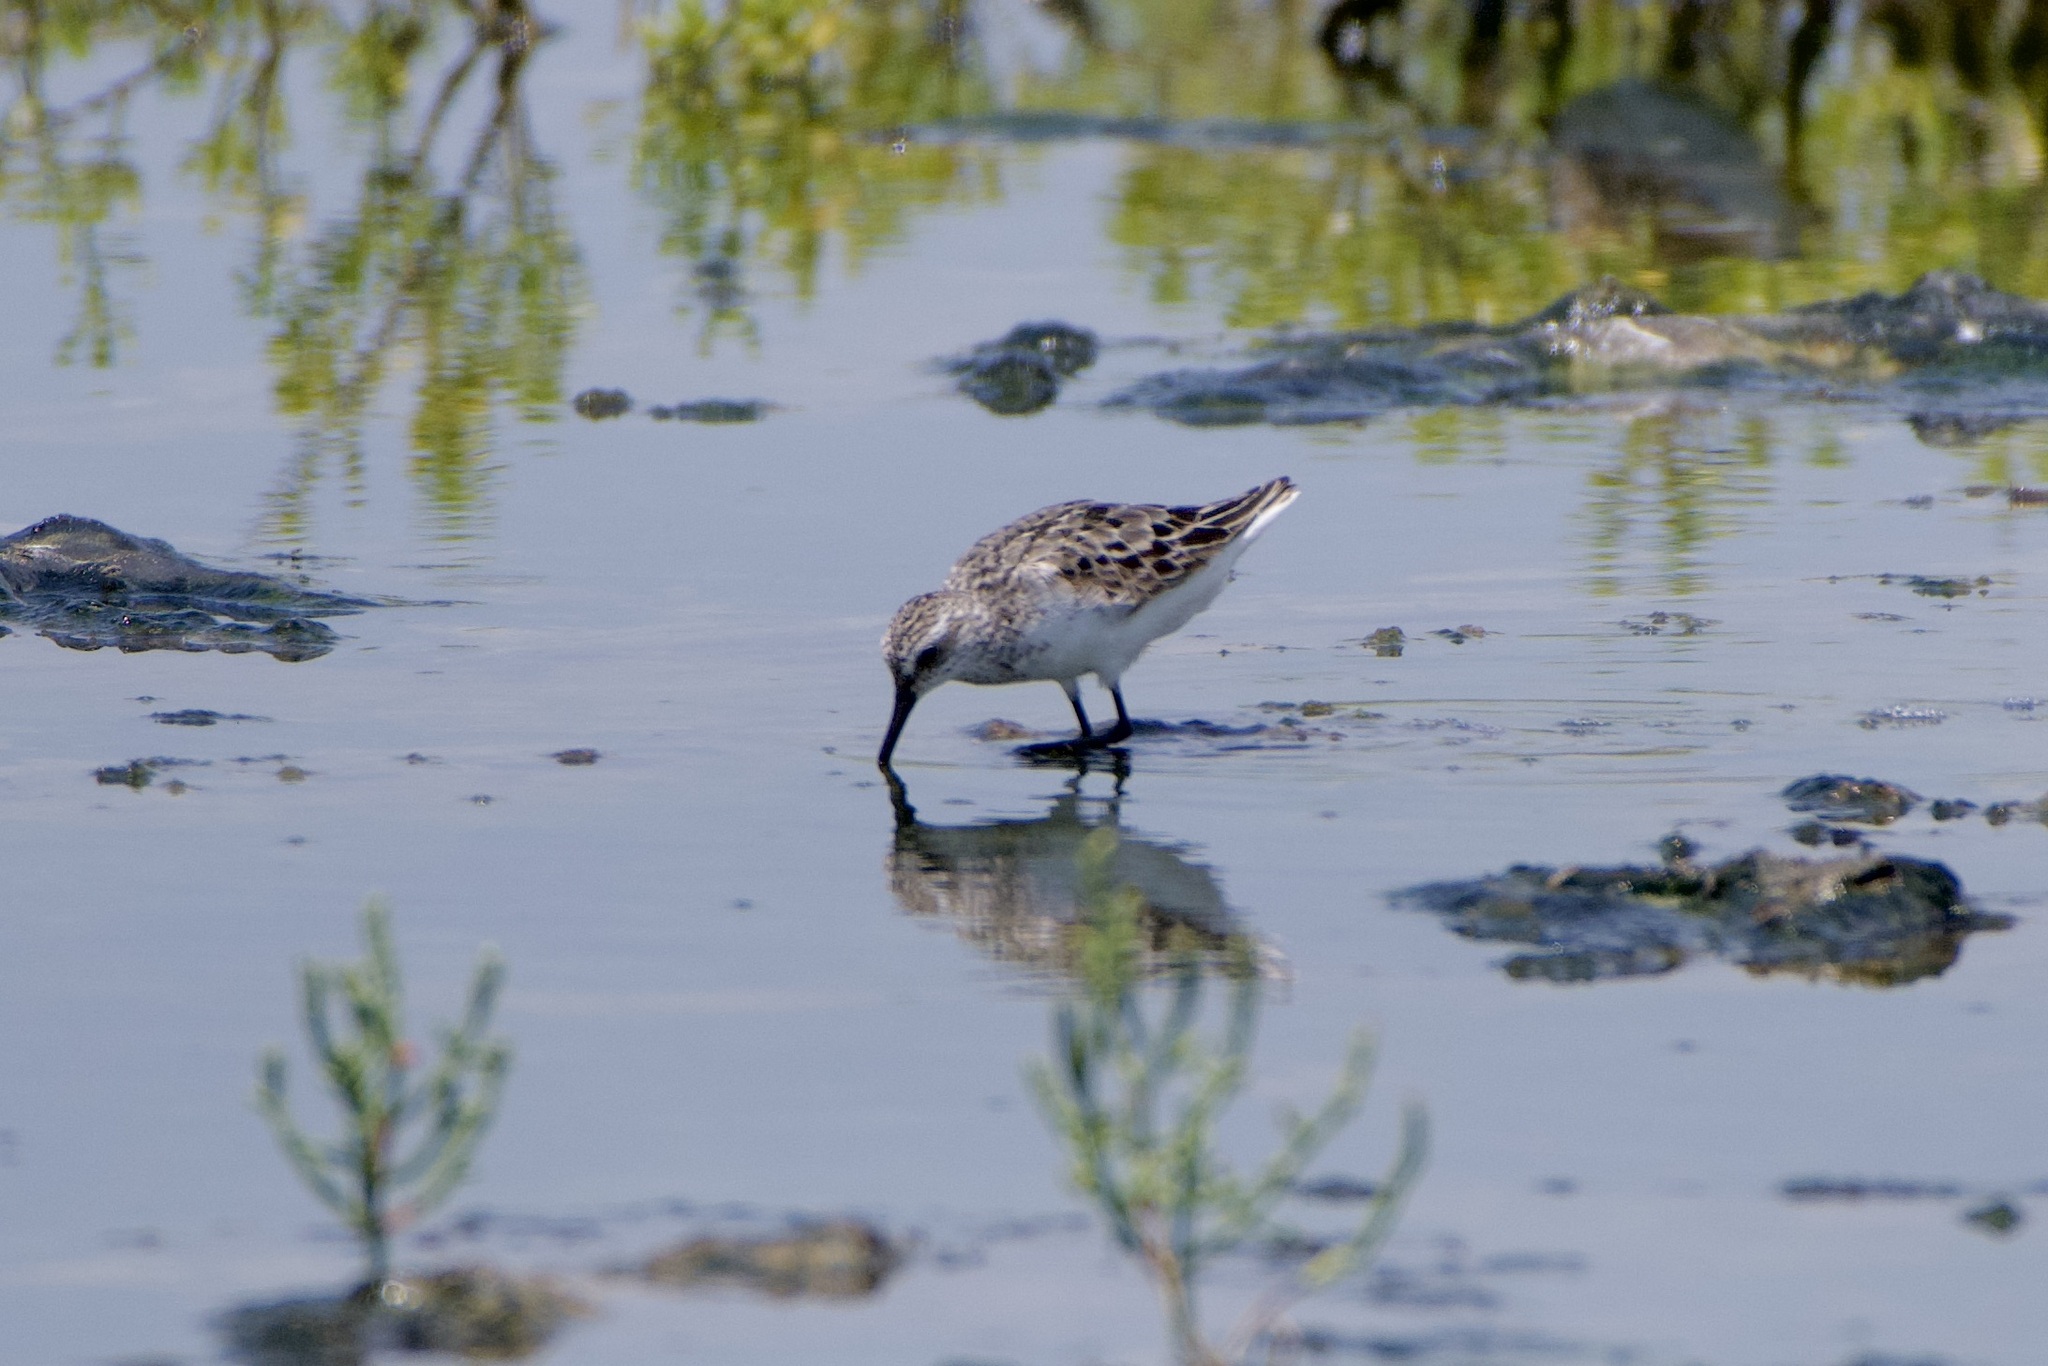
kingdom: Animalia
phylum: Chordata
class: Aves
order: Charadriiformes
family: Scolopacidae
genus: Calidris
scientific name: Calidris pusilla
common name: Semipalmated sandpiper
